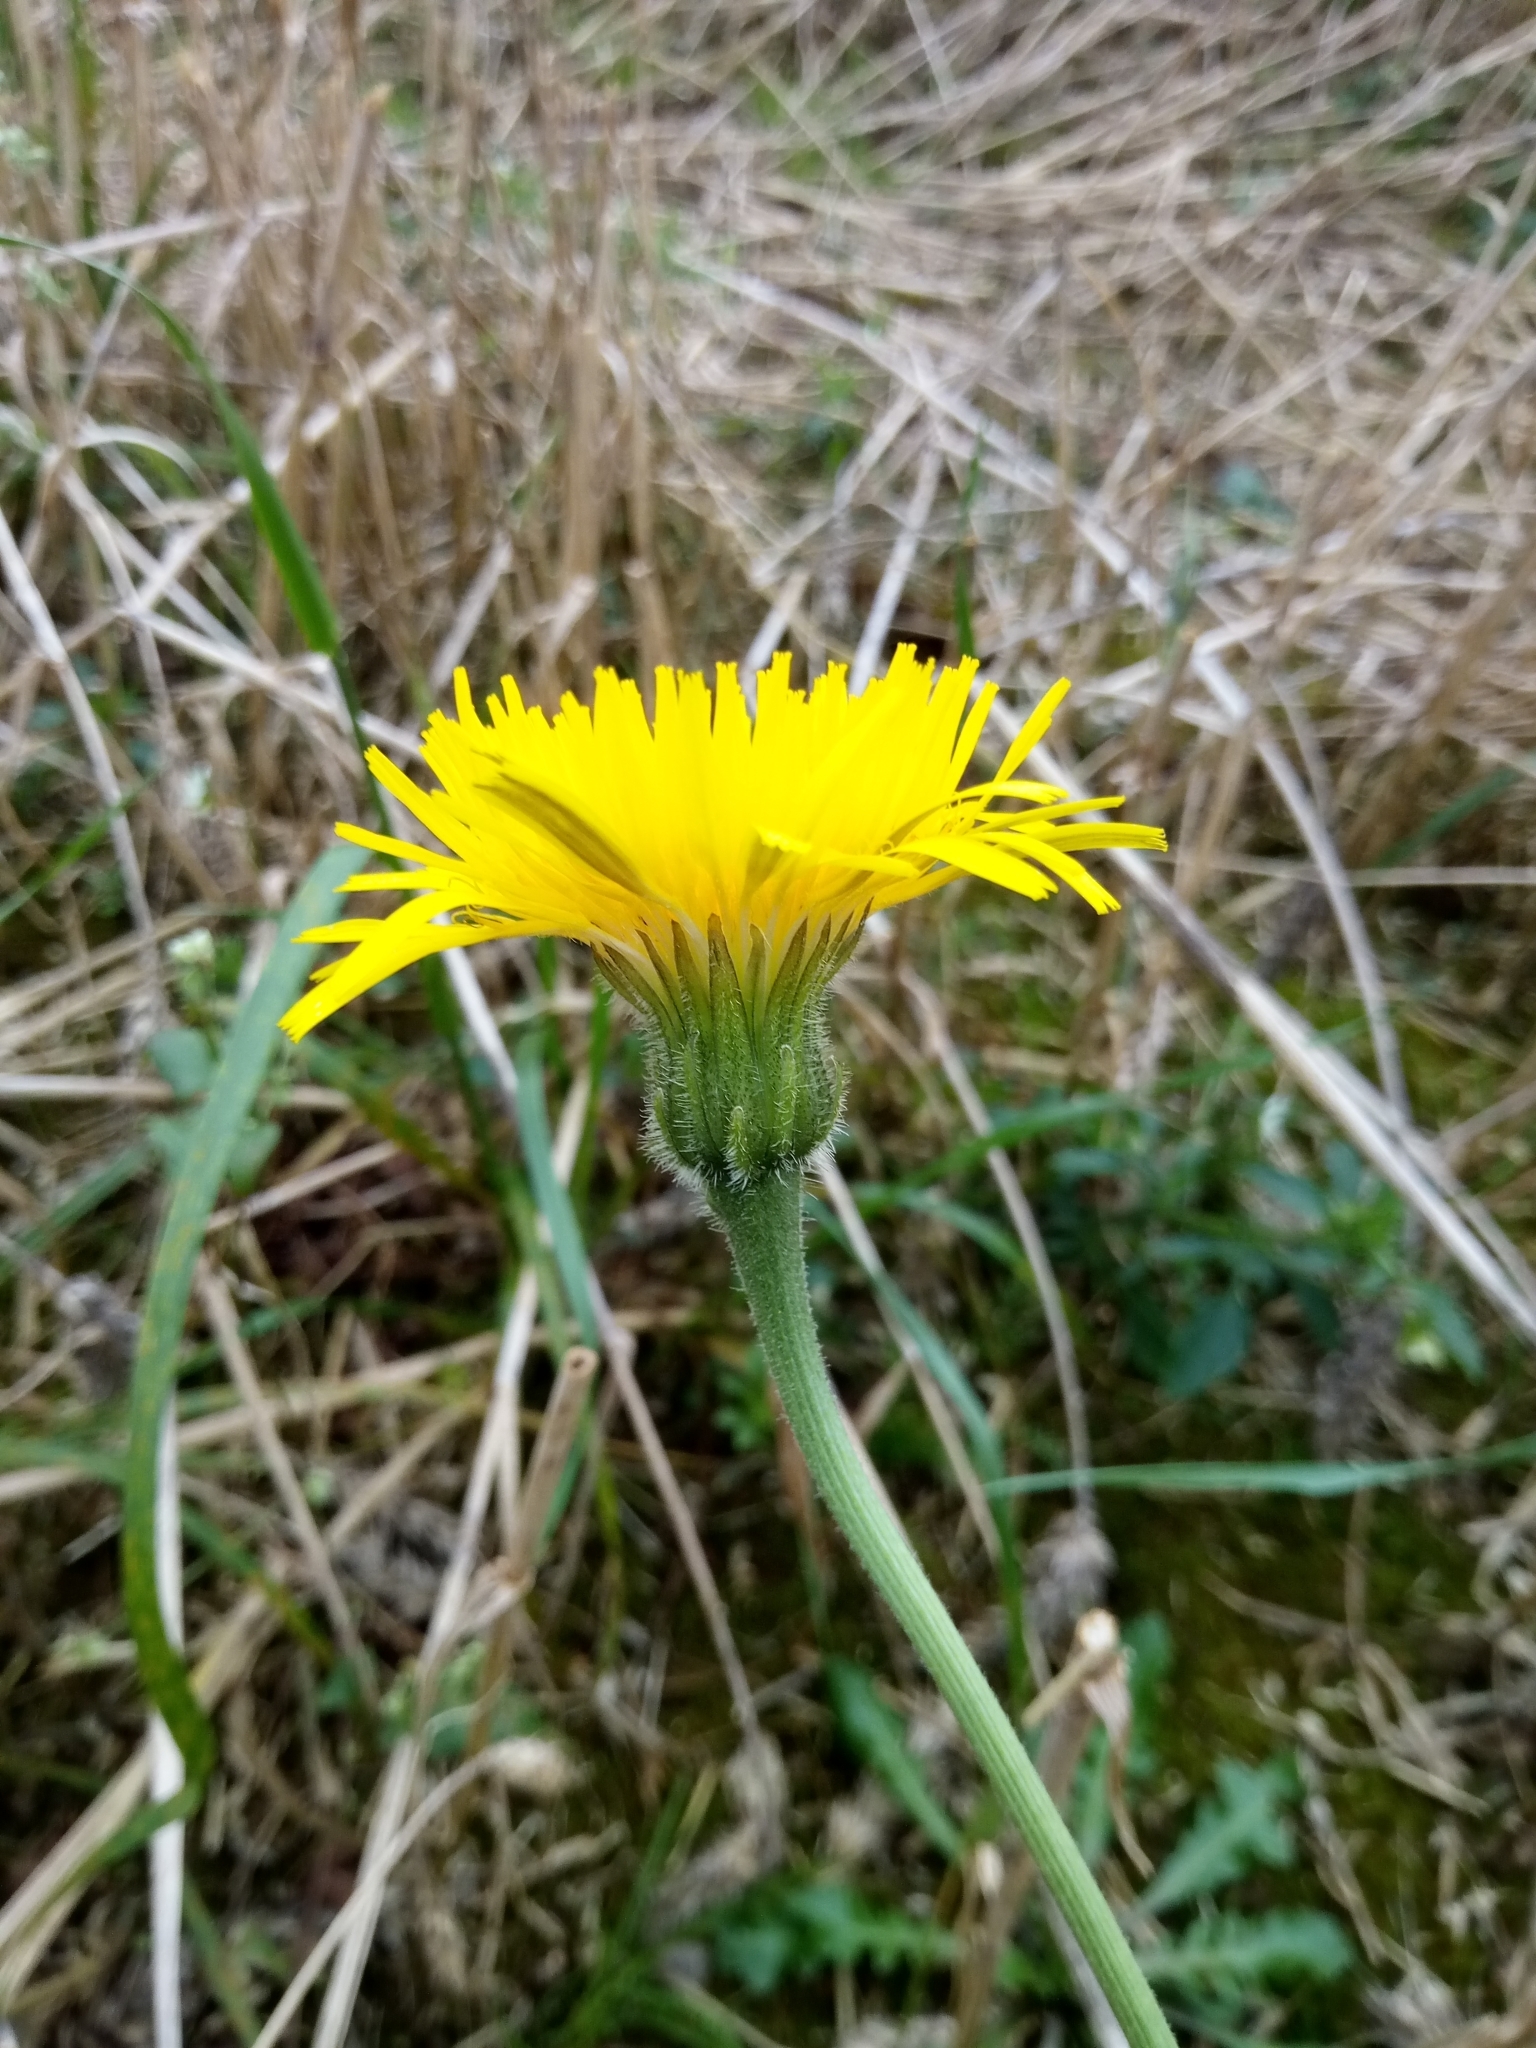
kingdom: Plantae
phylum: Tracheophyta
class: Magnoliopsida
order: Asterales
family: Asteraceae
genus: Leontodon
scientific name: Leontodon hispidus
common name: Rough hawkbit
